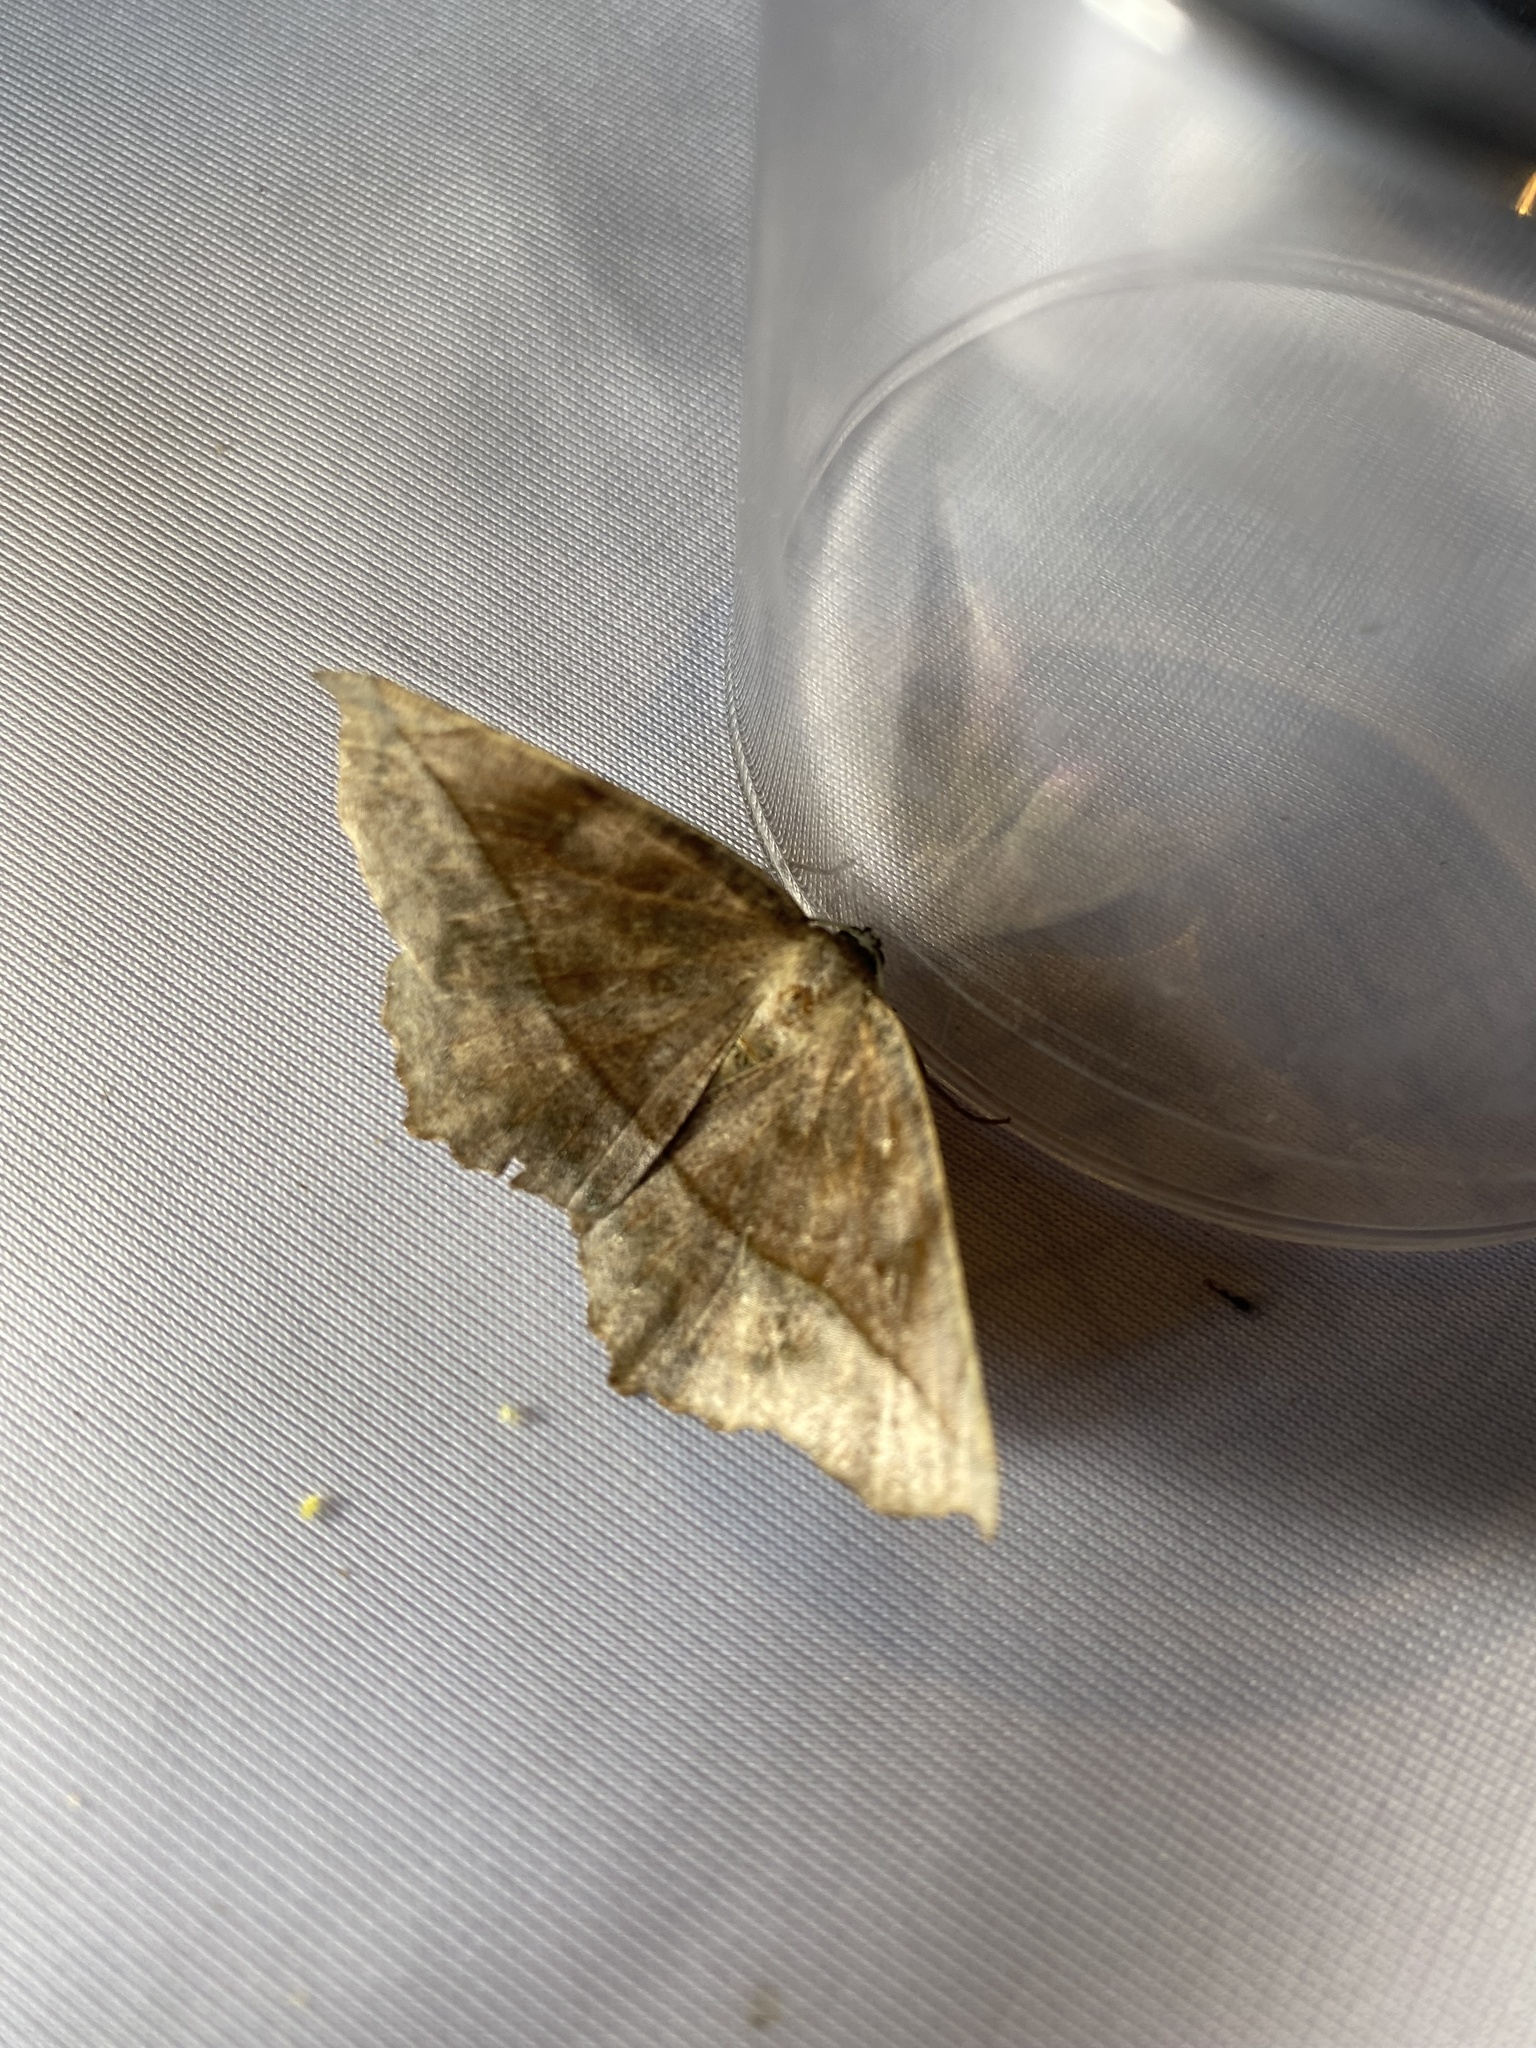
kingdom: Animalia
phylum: Arthropoda
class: Insecta
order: Lepidoptera
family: Geometridae
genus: Eutrapela
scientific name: Eutrapela clemataria
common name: Curved-toothed geometer
